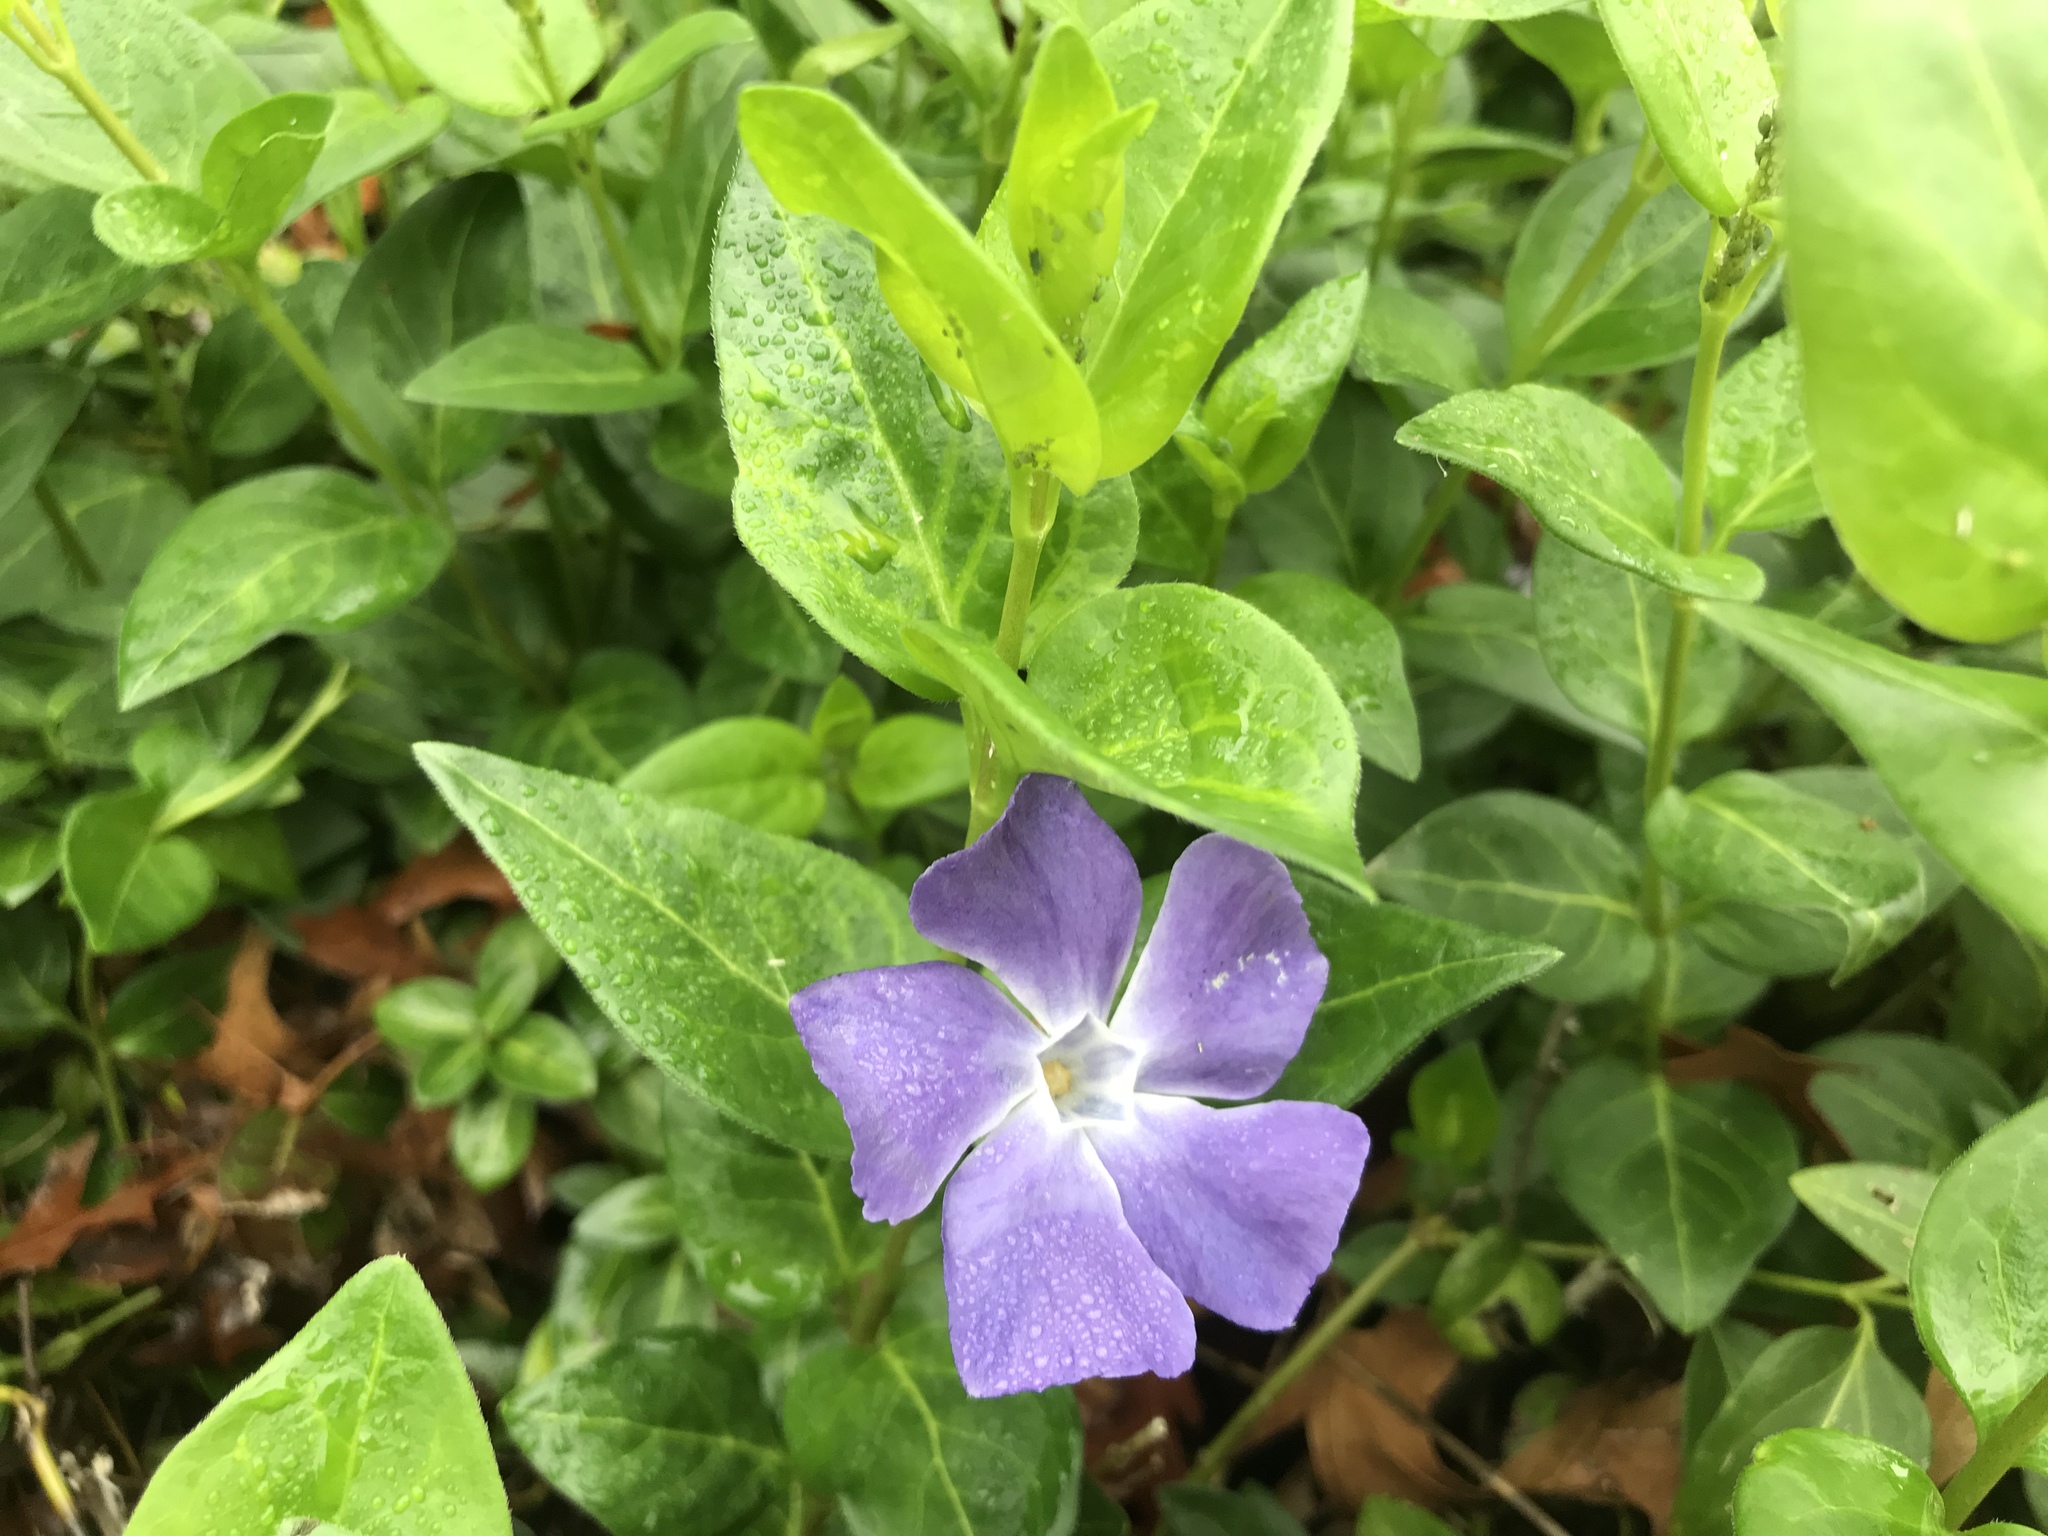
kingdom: Plantae
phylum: Tracheophyta
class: Magnoliopsida
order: Gentianales
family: Apocynaceae
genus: Vinca
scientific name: Vinca major
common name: Greater periwinkle
